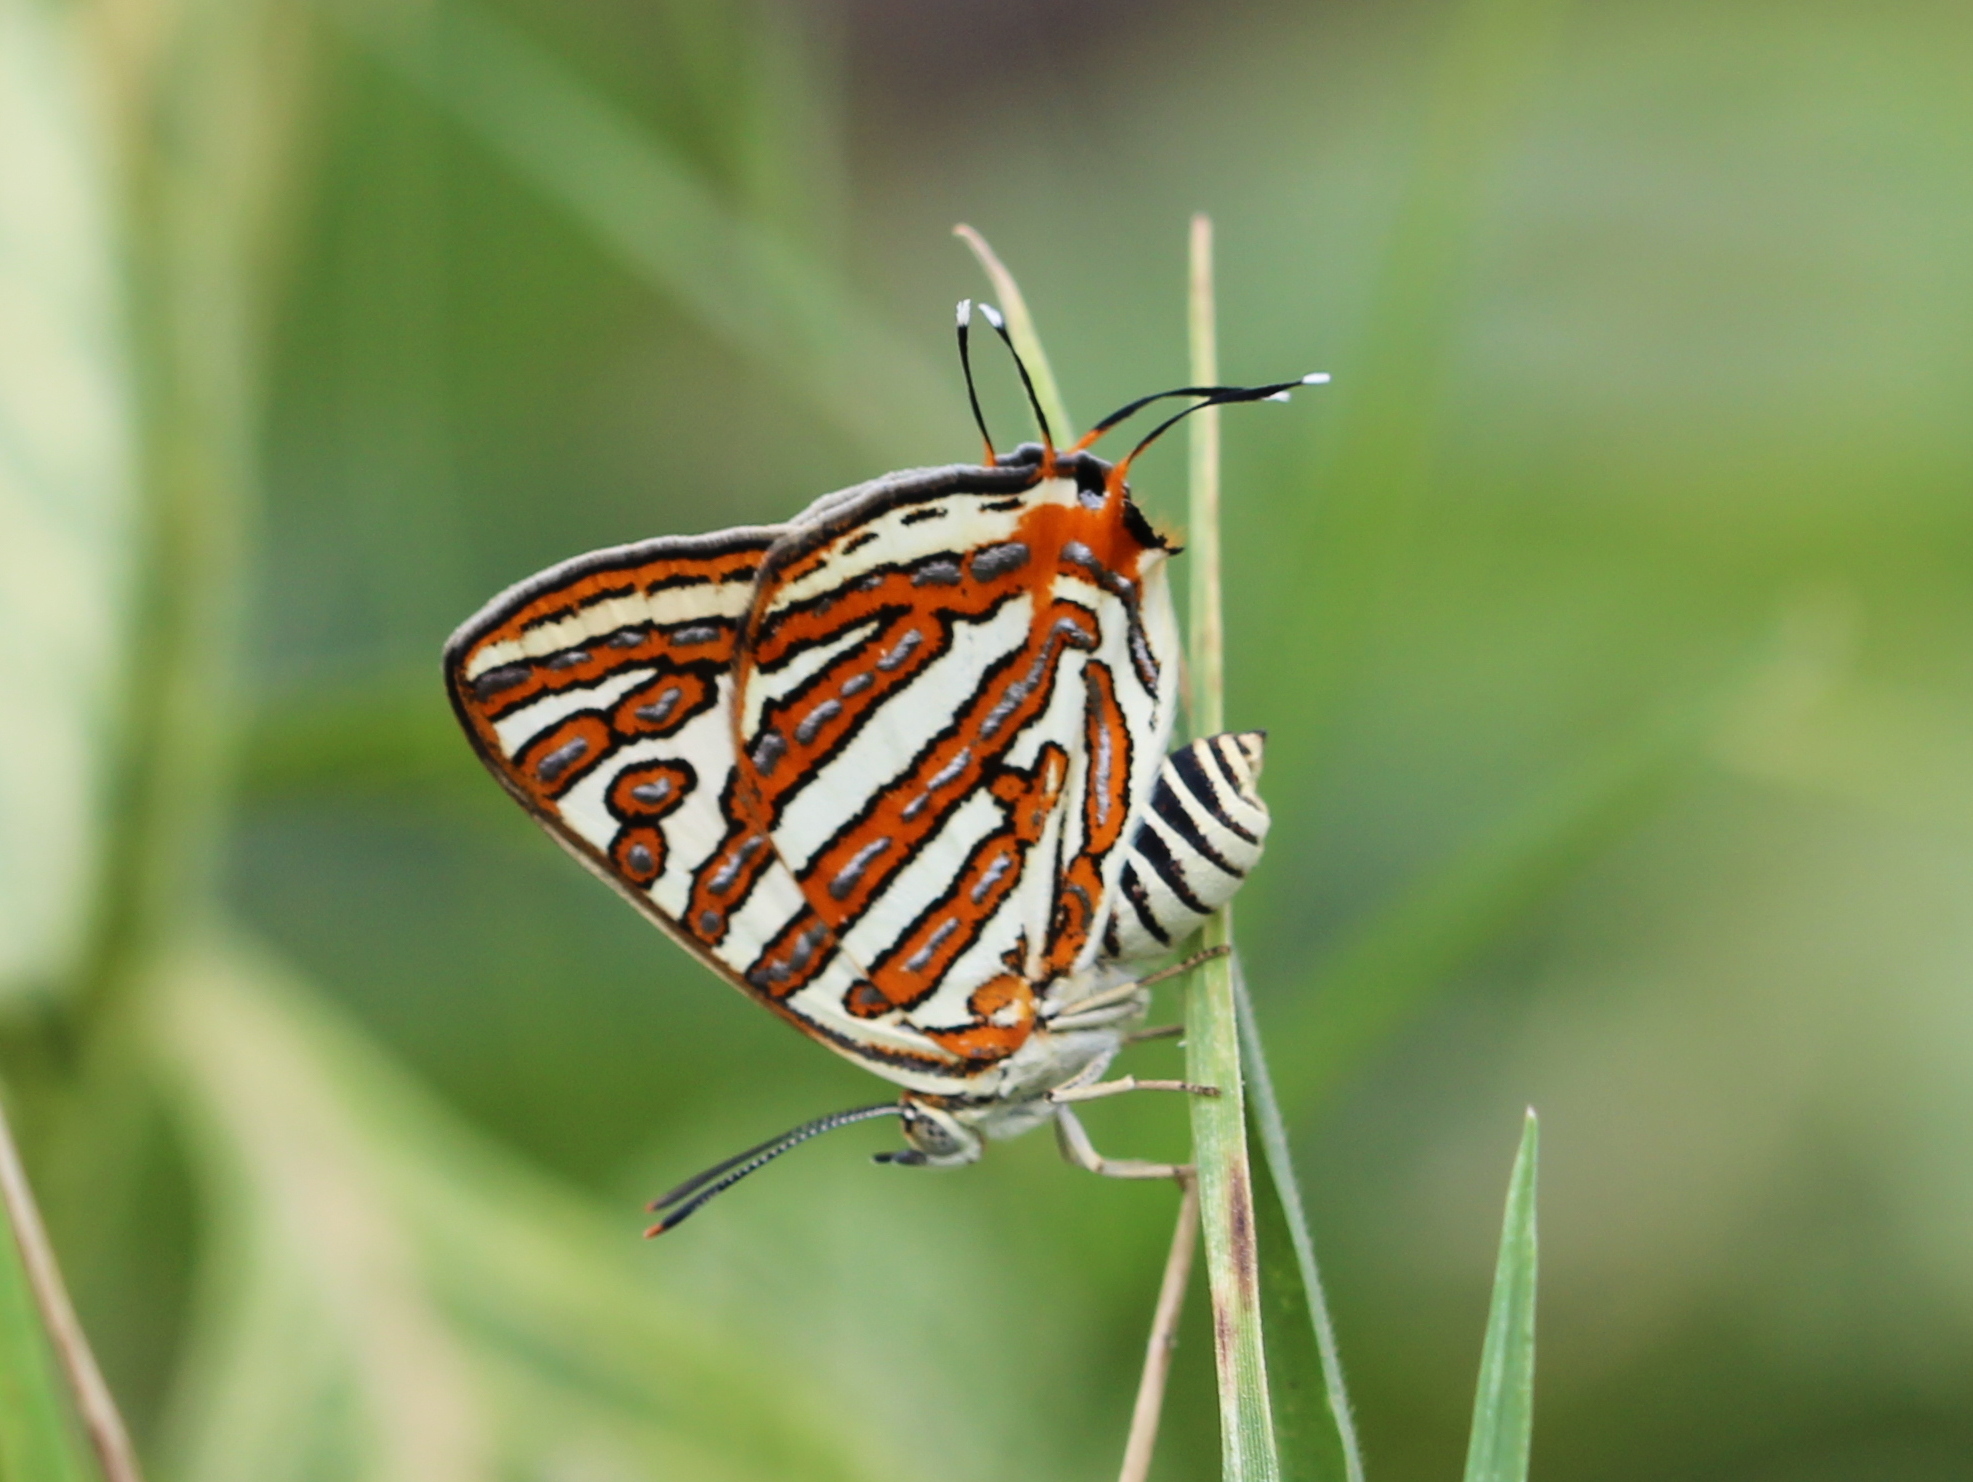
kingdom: Animalia
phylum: Arthropoda
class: Insecta
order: Lepidoptera
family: Lycaenidae
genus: Cigaritis
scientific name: Cigaritis vulcanus
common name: Common silverline
